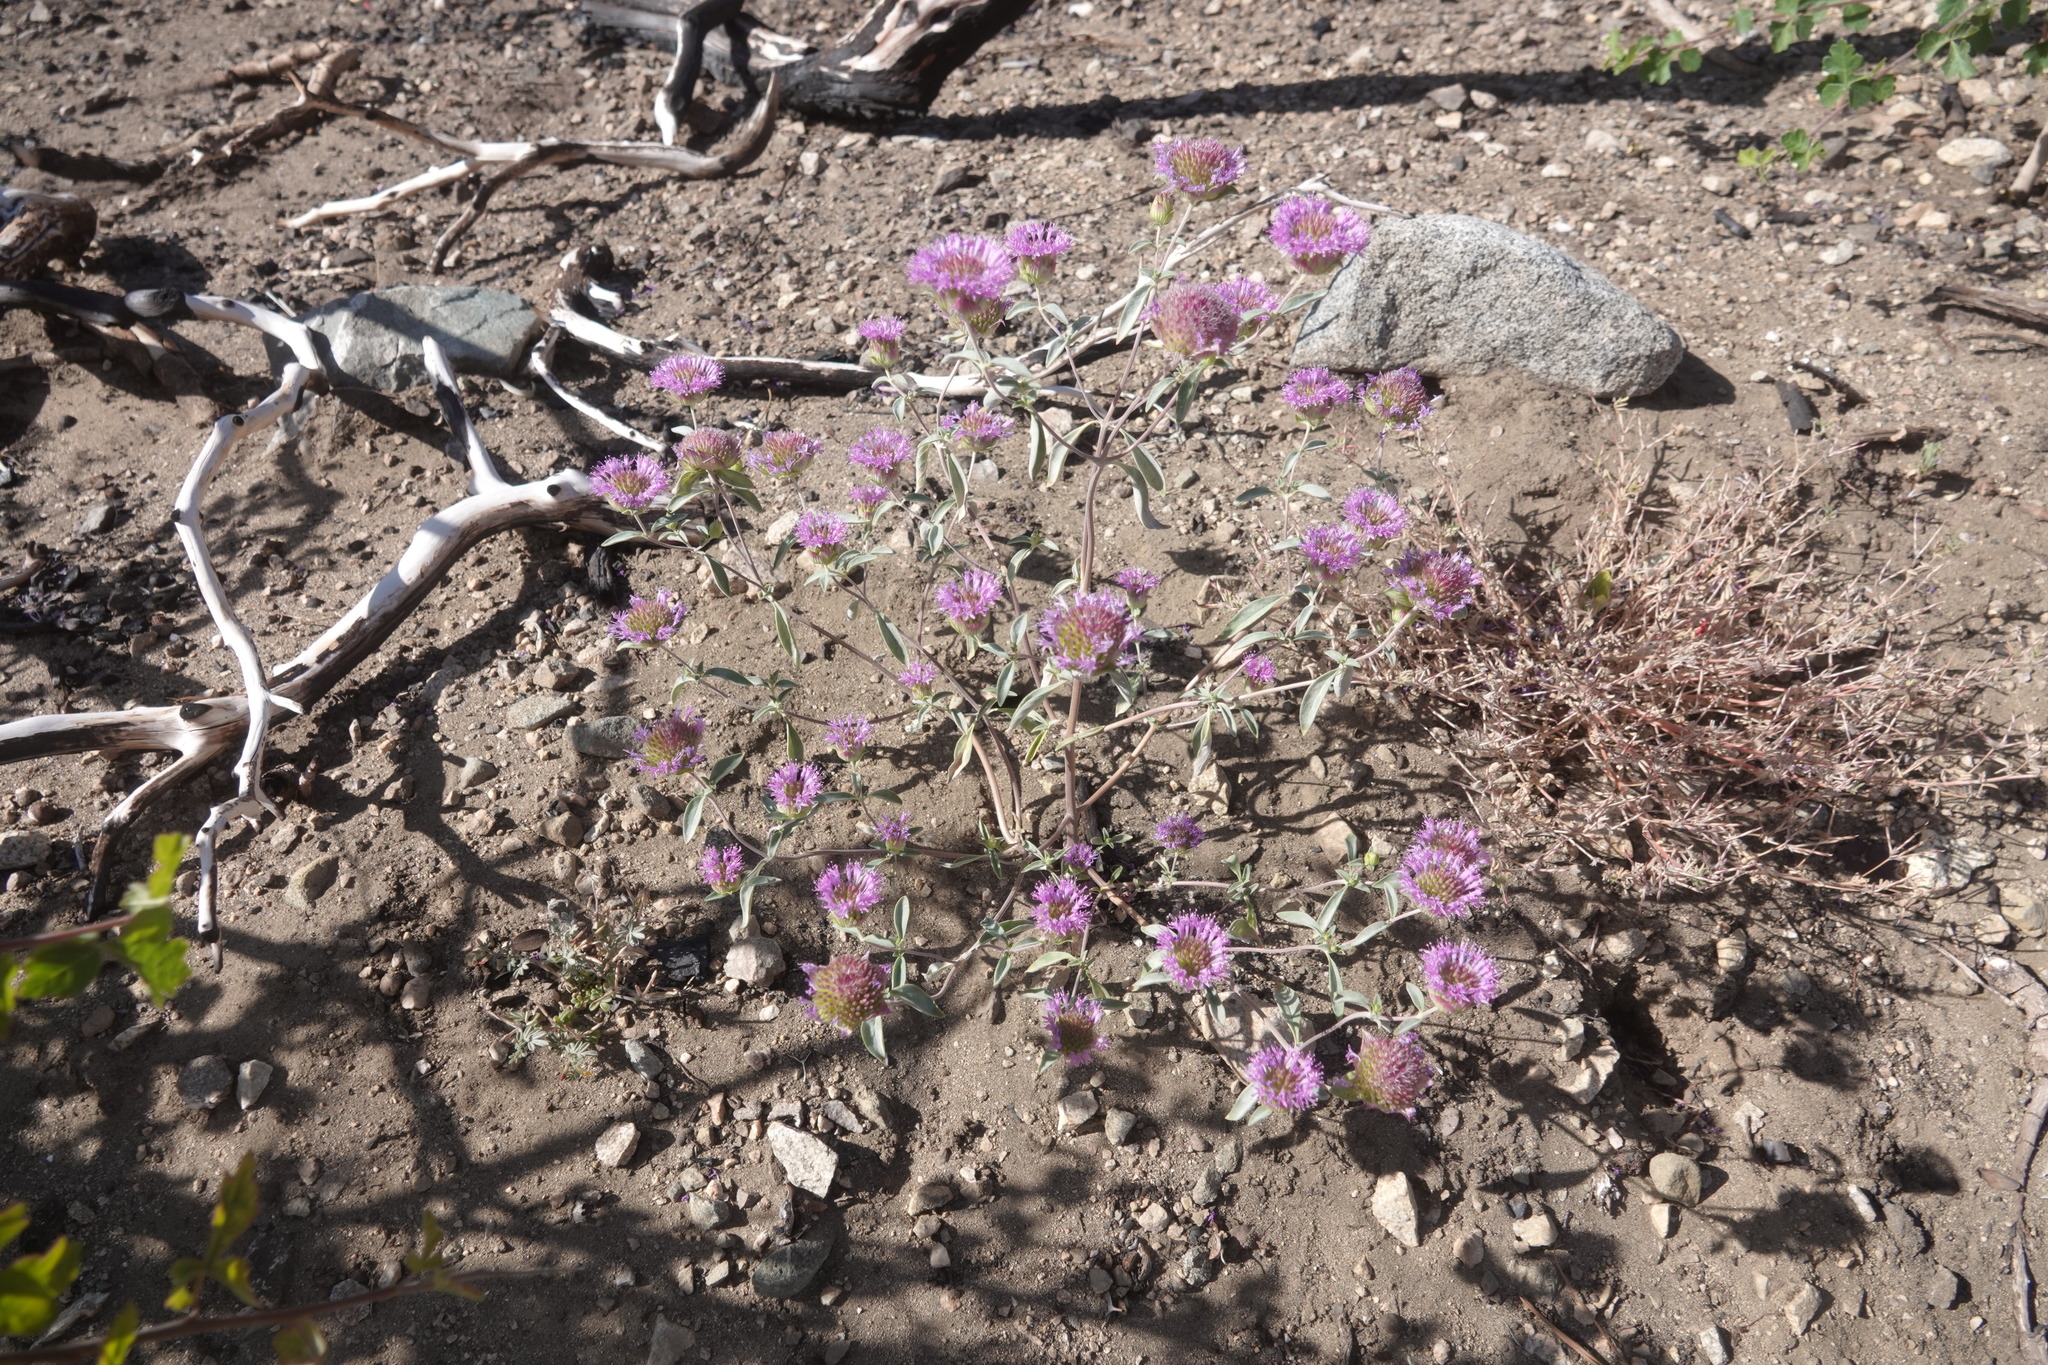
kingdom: Plantae
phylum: Tracheophyta
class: Magnoliopsida
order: Lamiales
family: Lamiaceae
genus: Monardella
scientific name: Monardella breweri
